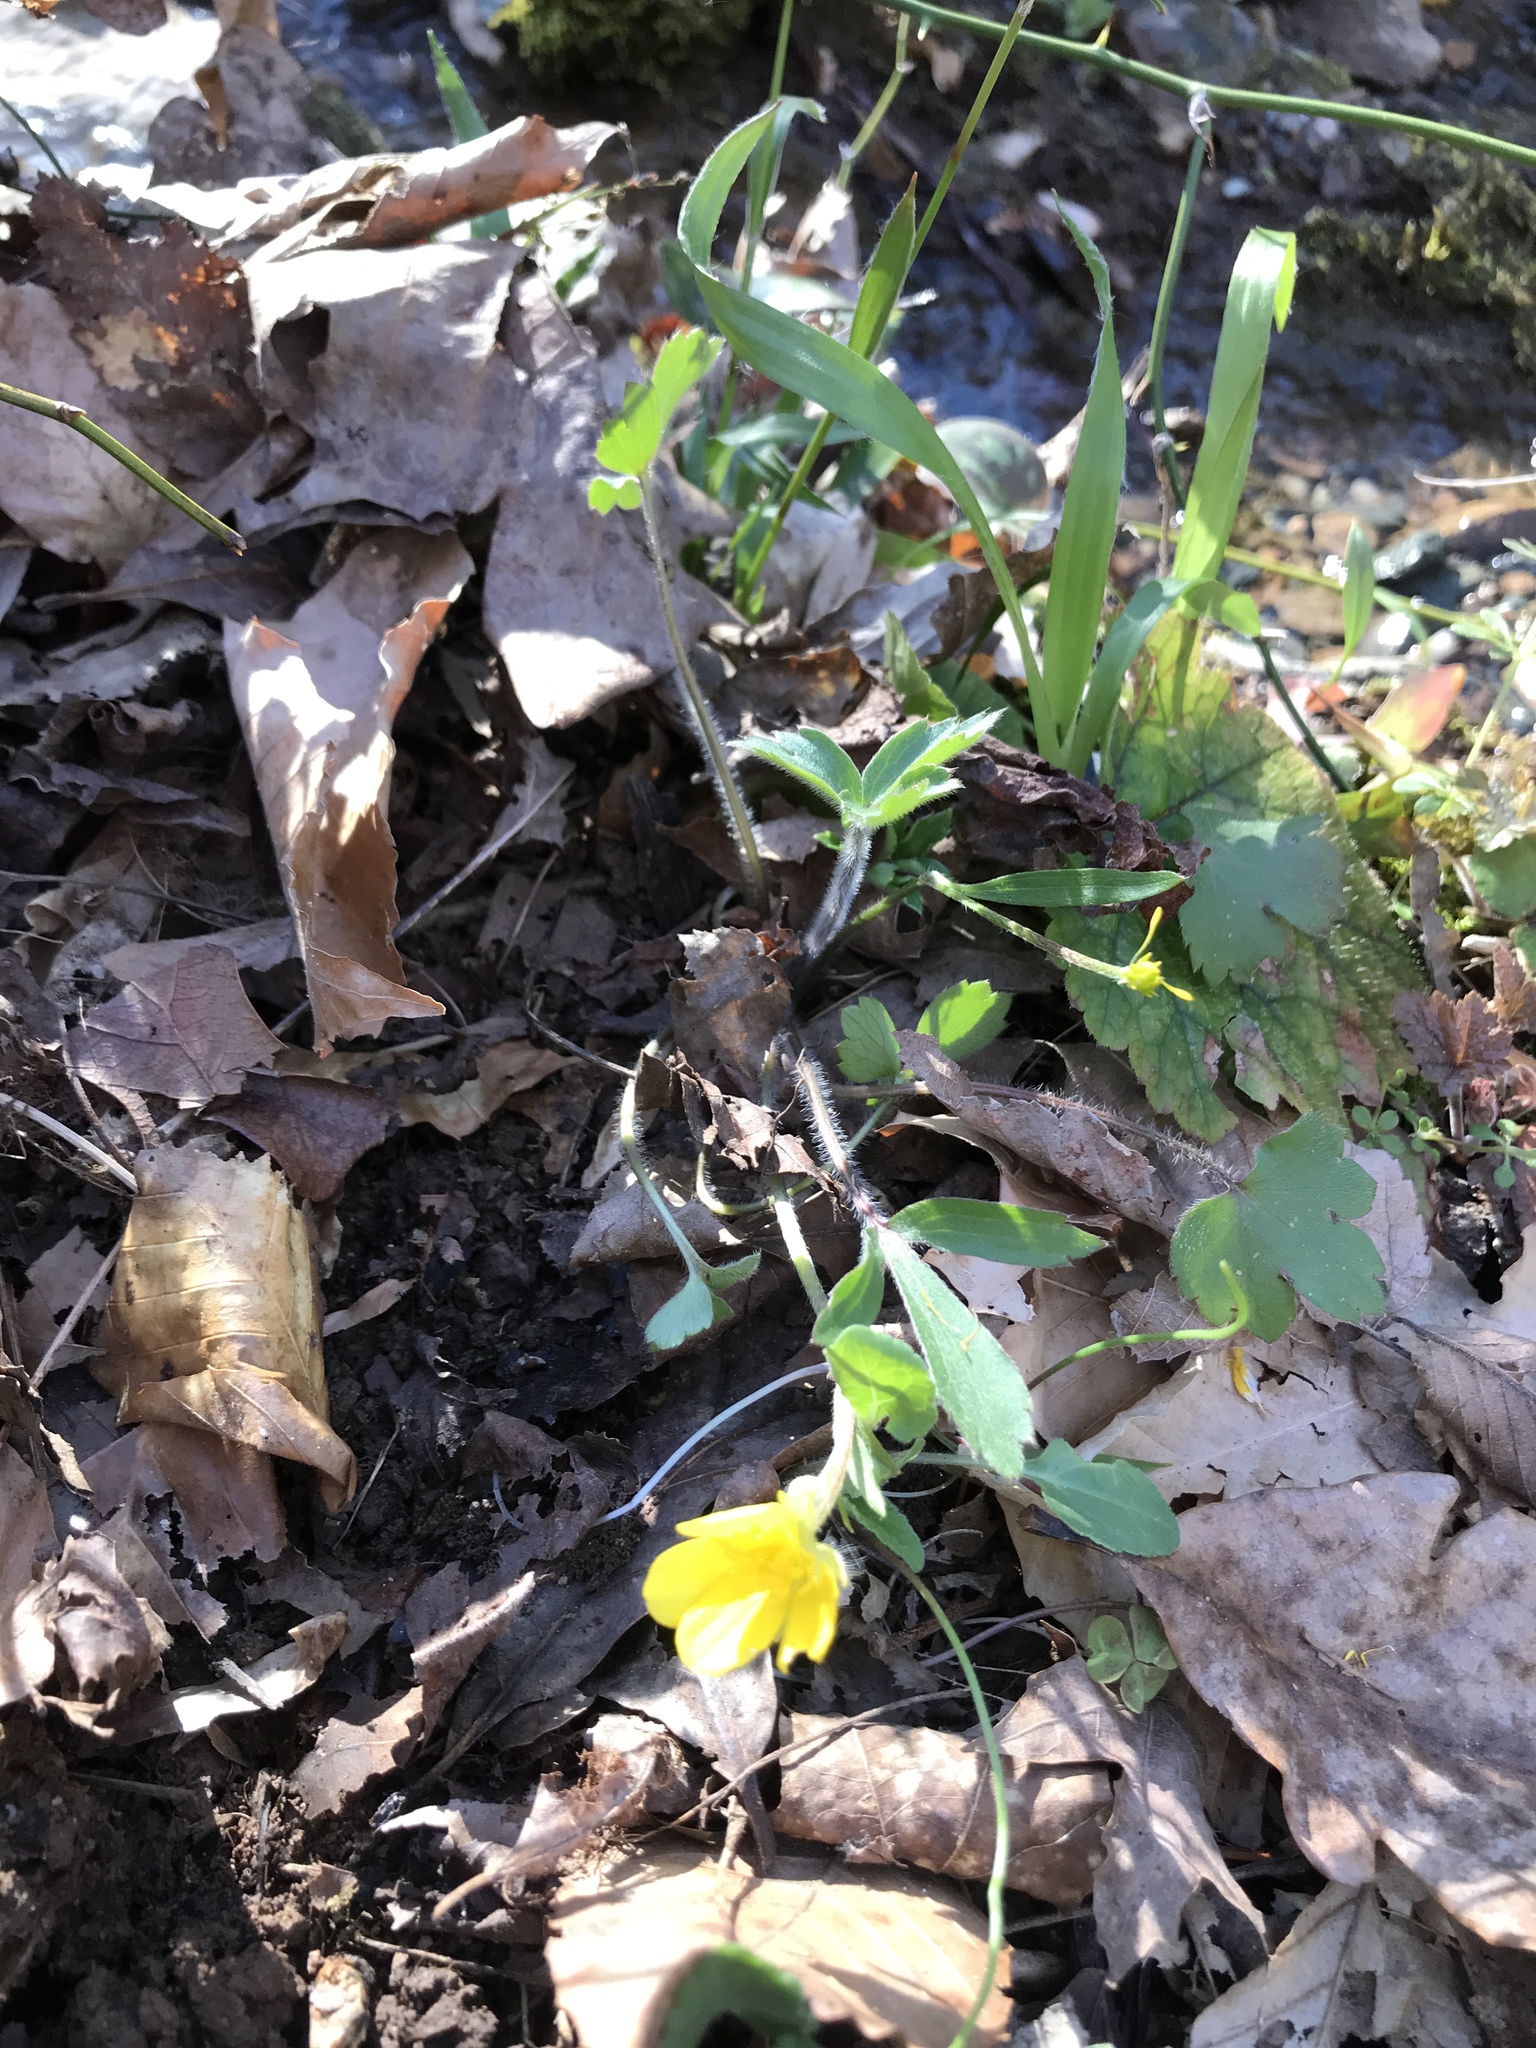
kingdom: Plantae
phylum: Tracheophyta
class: Magnoliopsida
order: Ranunculales
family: Ranunculaceae
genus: Ranunculus
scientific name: Ranunculus hispidus
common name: Bristly buttercup
